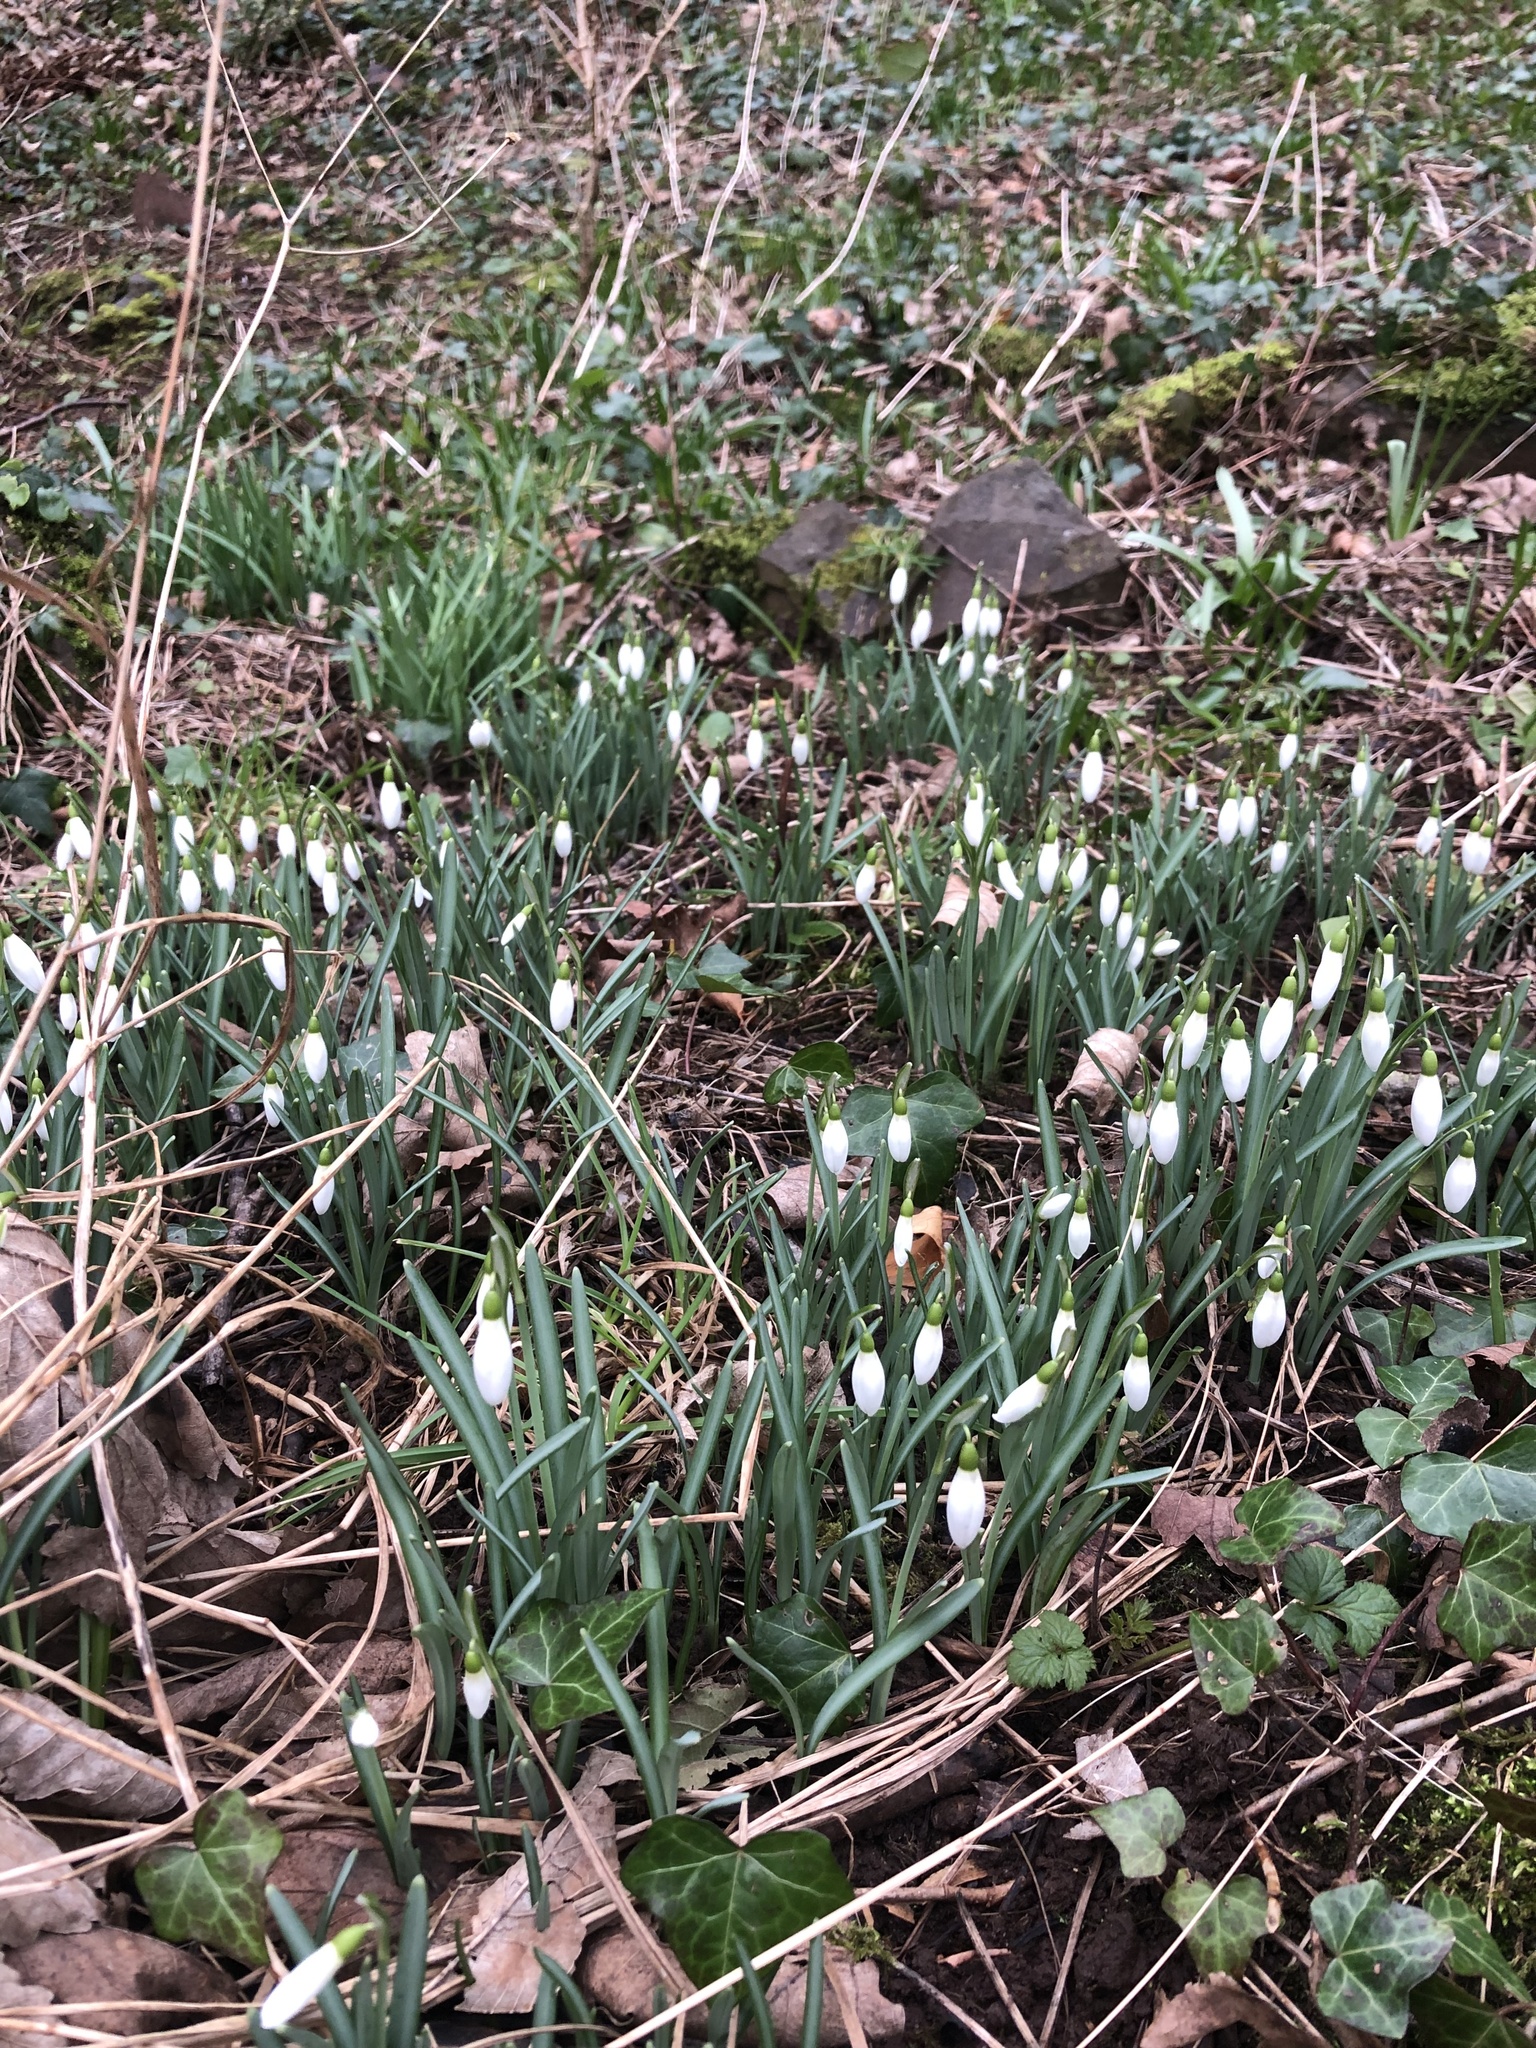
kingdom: Plantae
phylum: Tracheophyta
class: Liliopsida
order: Asparagales
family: Amaryllidaceae
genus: Galanthus
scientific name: Galanthus nivalis
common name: Snowdrop
